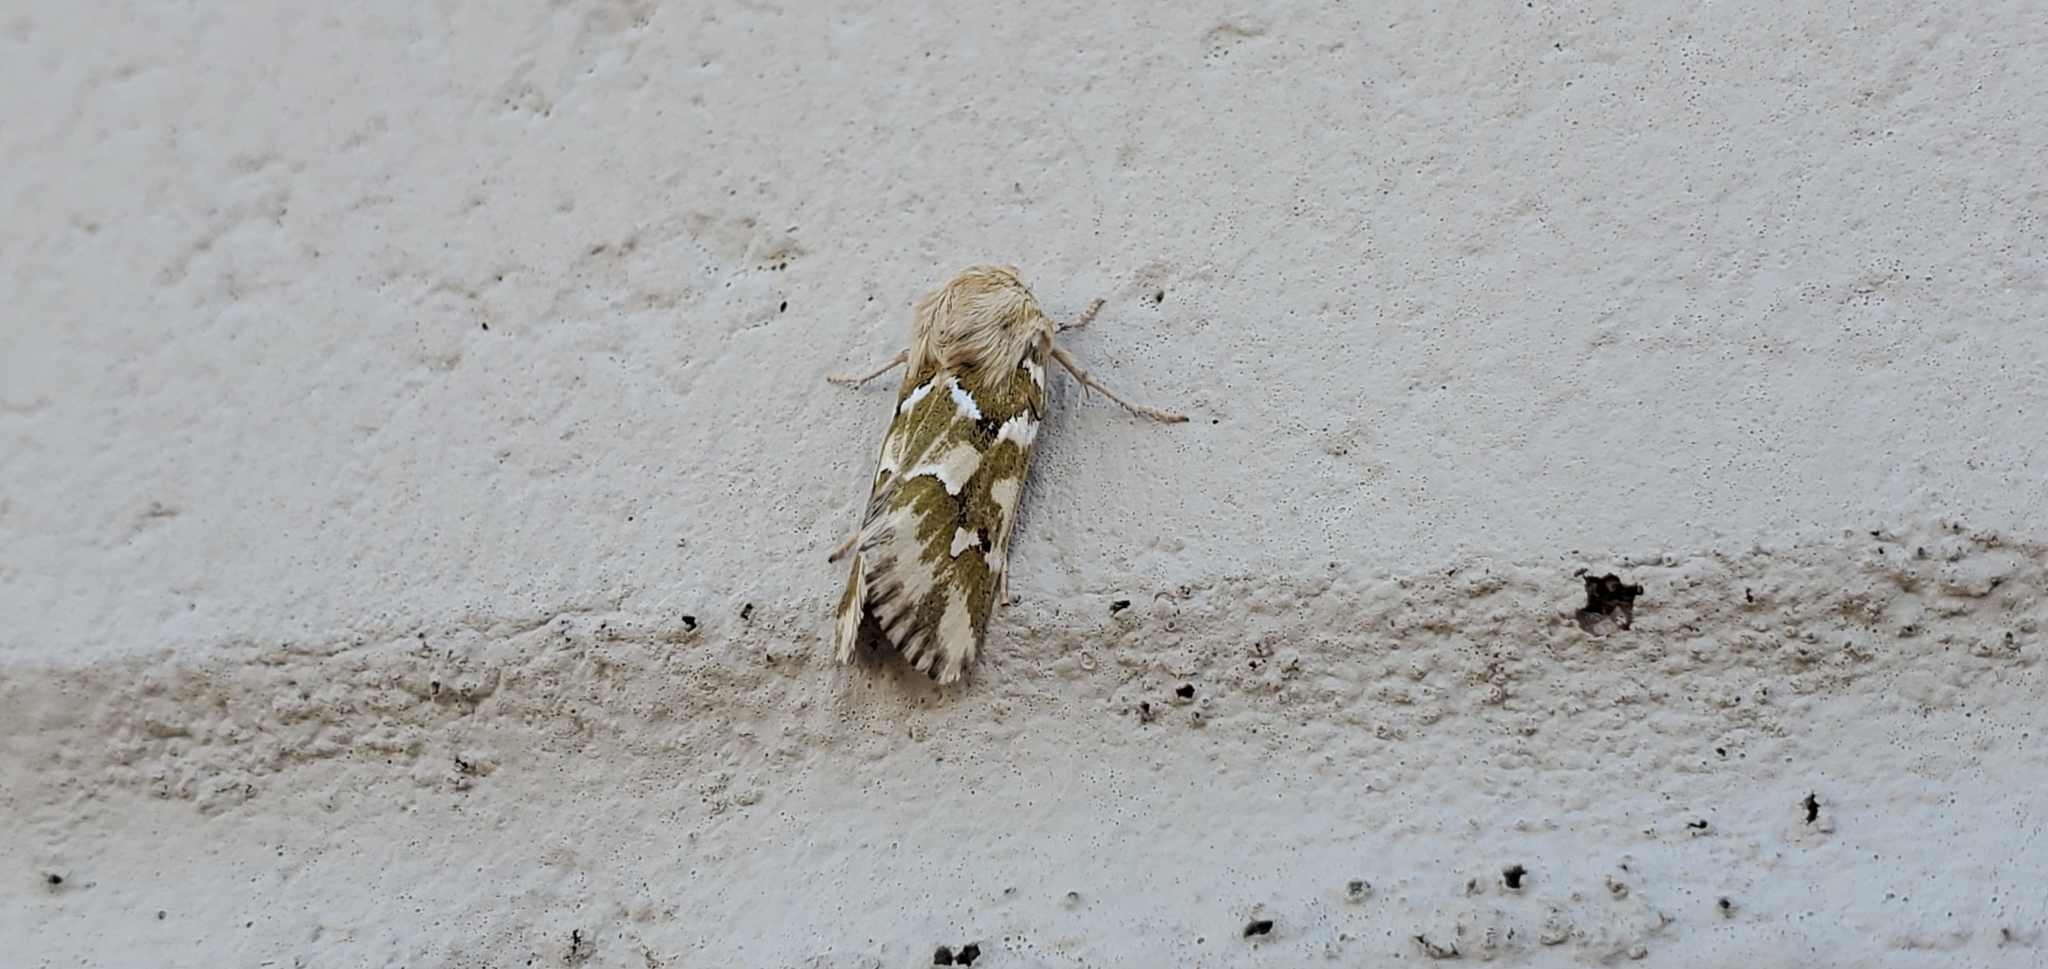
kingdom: Animalia
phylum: Arthropoda
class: Insecta
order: Lepidoptera
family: Noctuidae
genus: Schinia
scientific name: Schinia meadi
